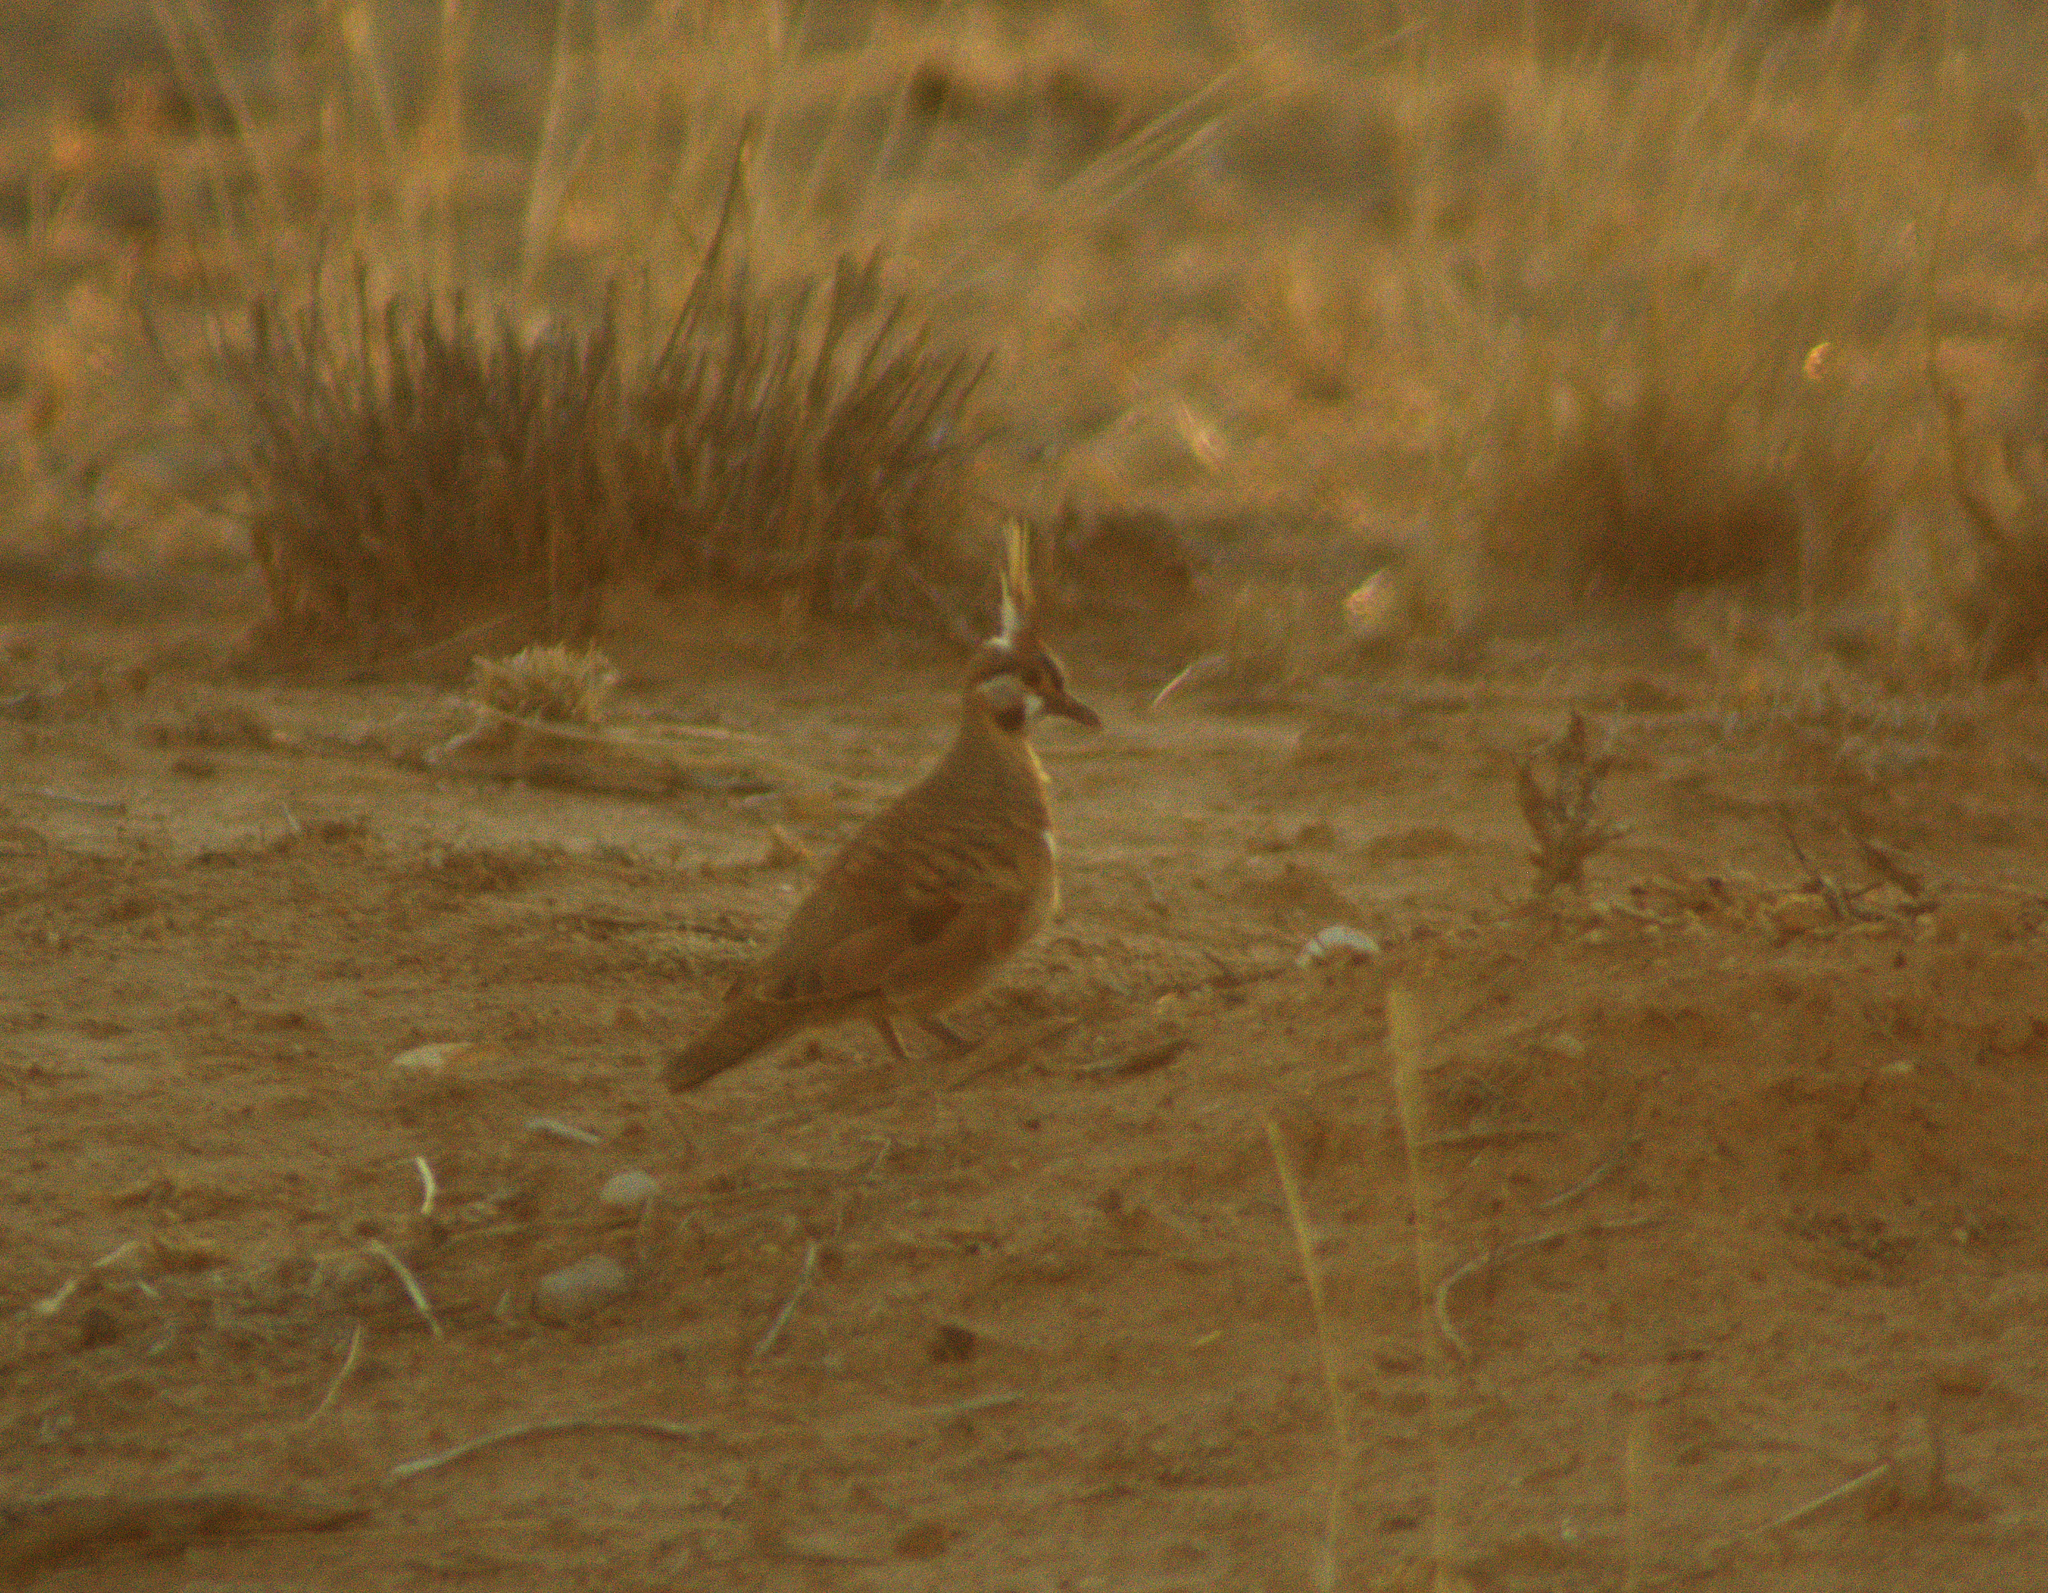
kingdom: Animalia
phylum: Chordata
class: Aves
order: Columbiformes
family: Columbidae
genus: Geophaps
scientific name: Geophaps plumifera
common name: Spinifex pigeon
